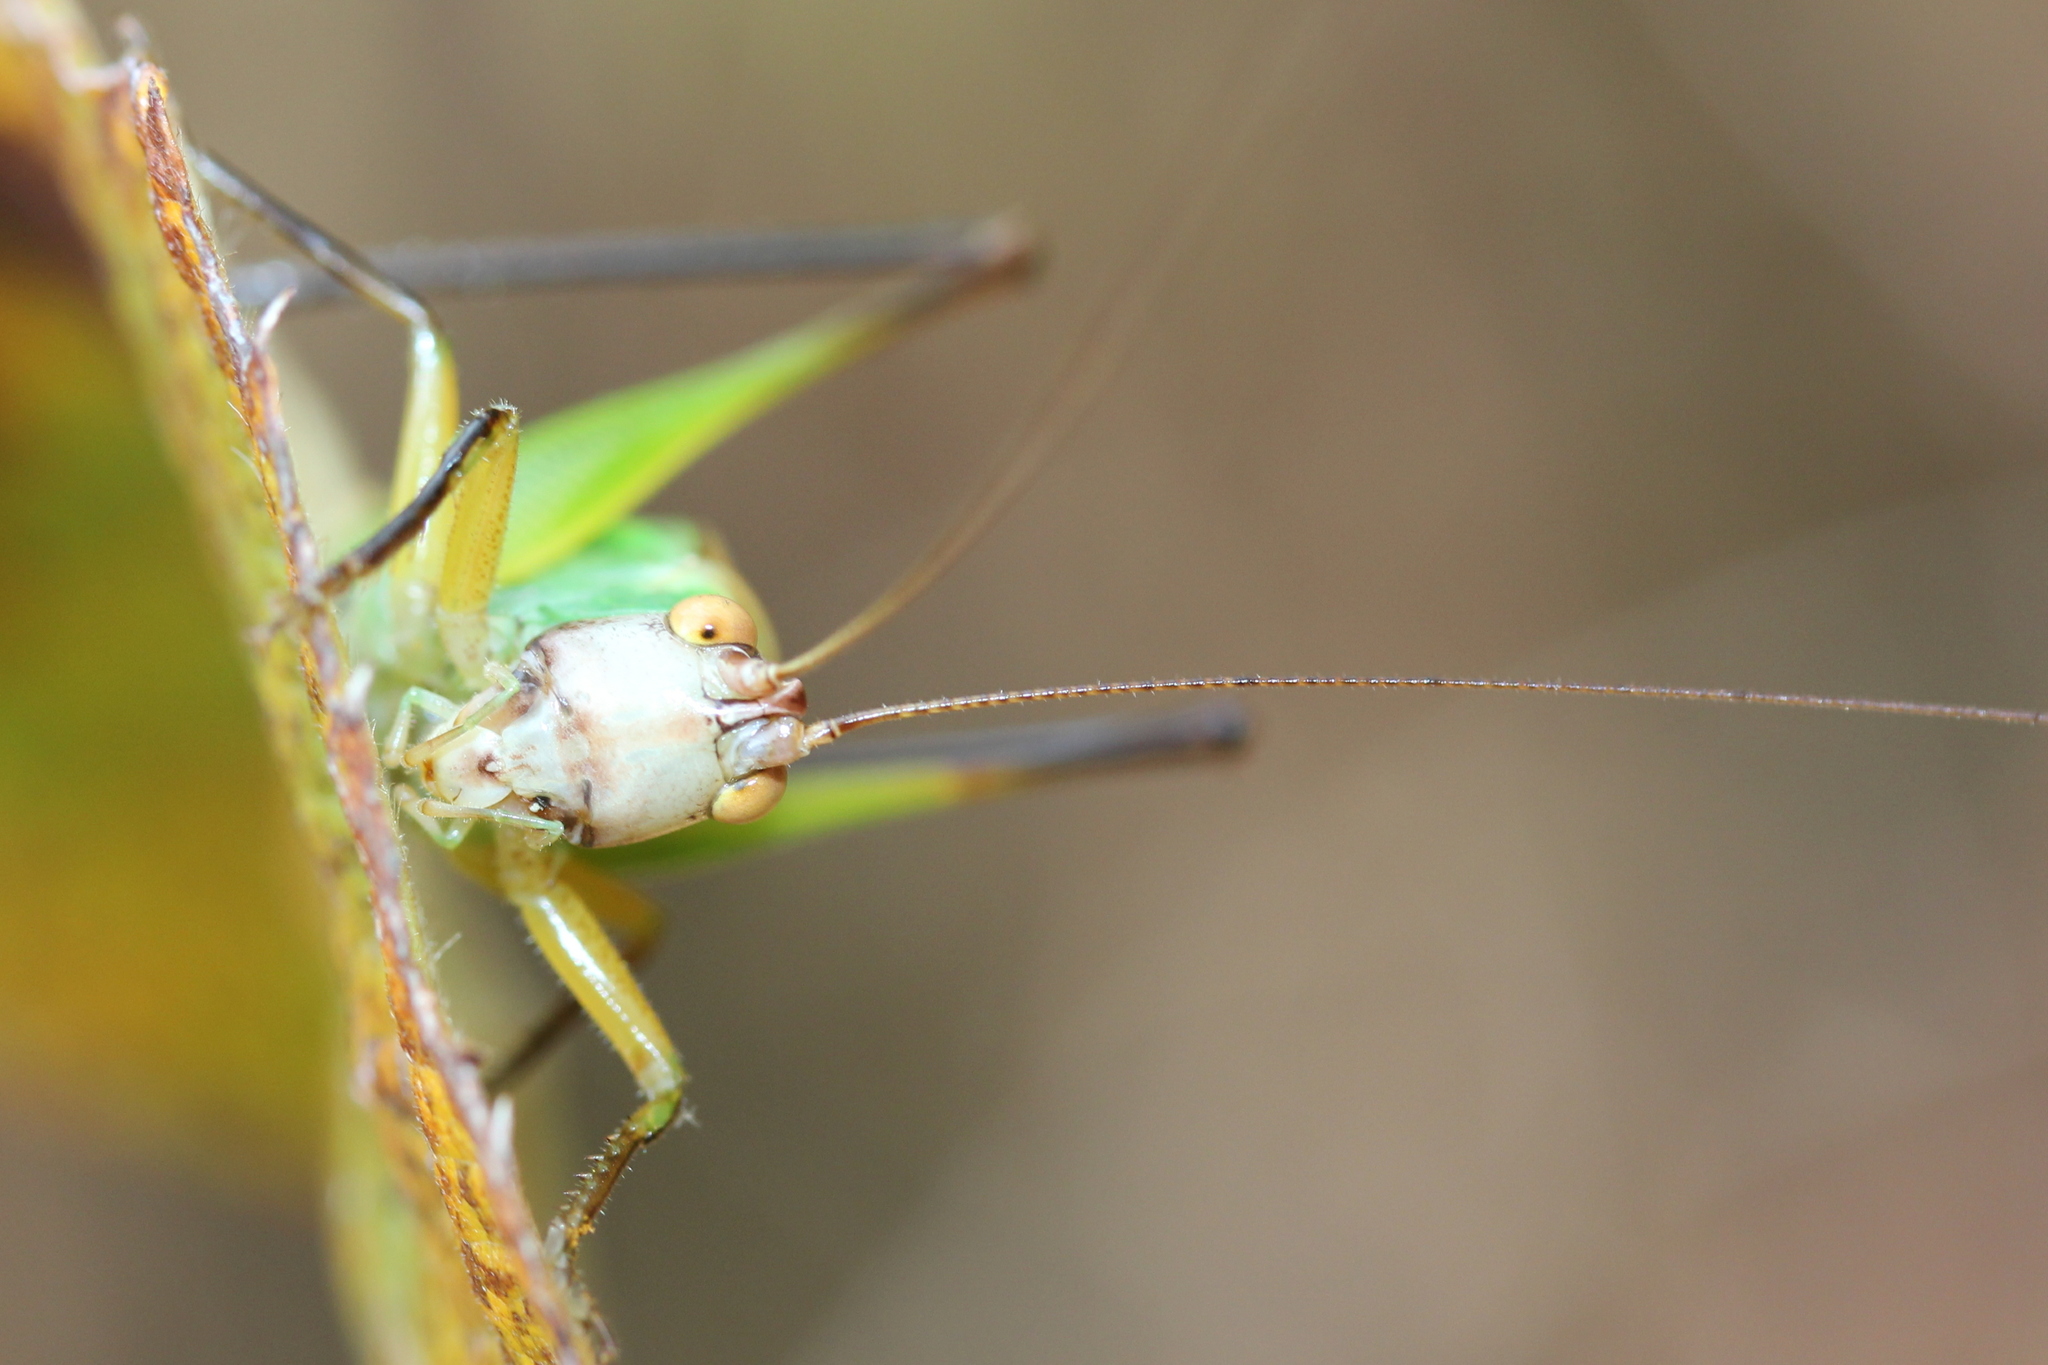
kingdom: Animalia
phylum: Arthropoda
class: Insecta
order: Orthoptera
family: Tettigoniidae
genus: Orchelimum
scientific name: Orchelimum nigripes
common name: Black-legged meadow katydid
